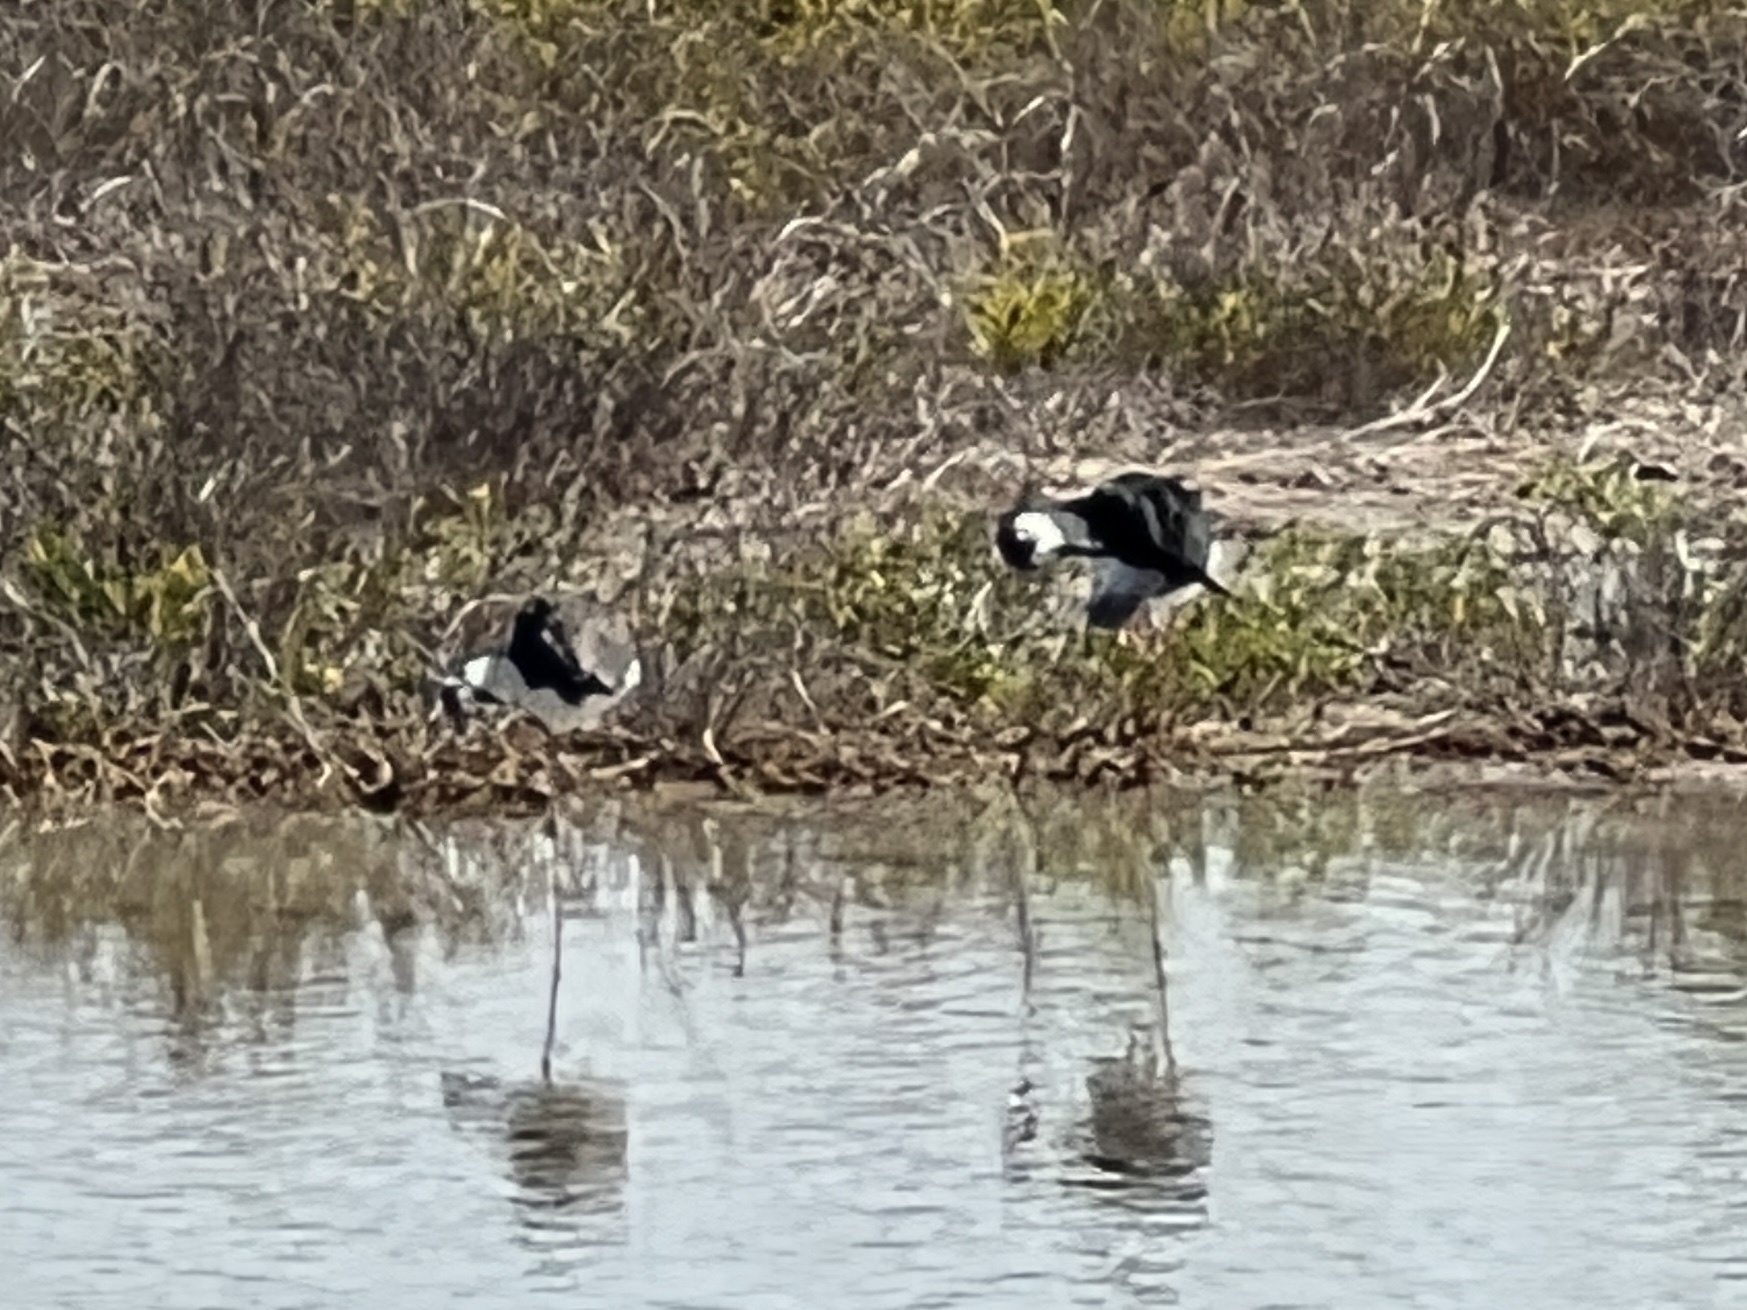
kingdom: Animalia
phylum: Chordata
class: Aves
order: Charadriiformes
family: Recurvirostridae
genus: Himantopus
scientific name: Himantopus mexicanus
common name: Black-necked stilt
